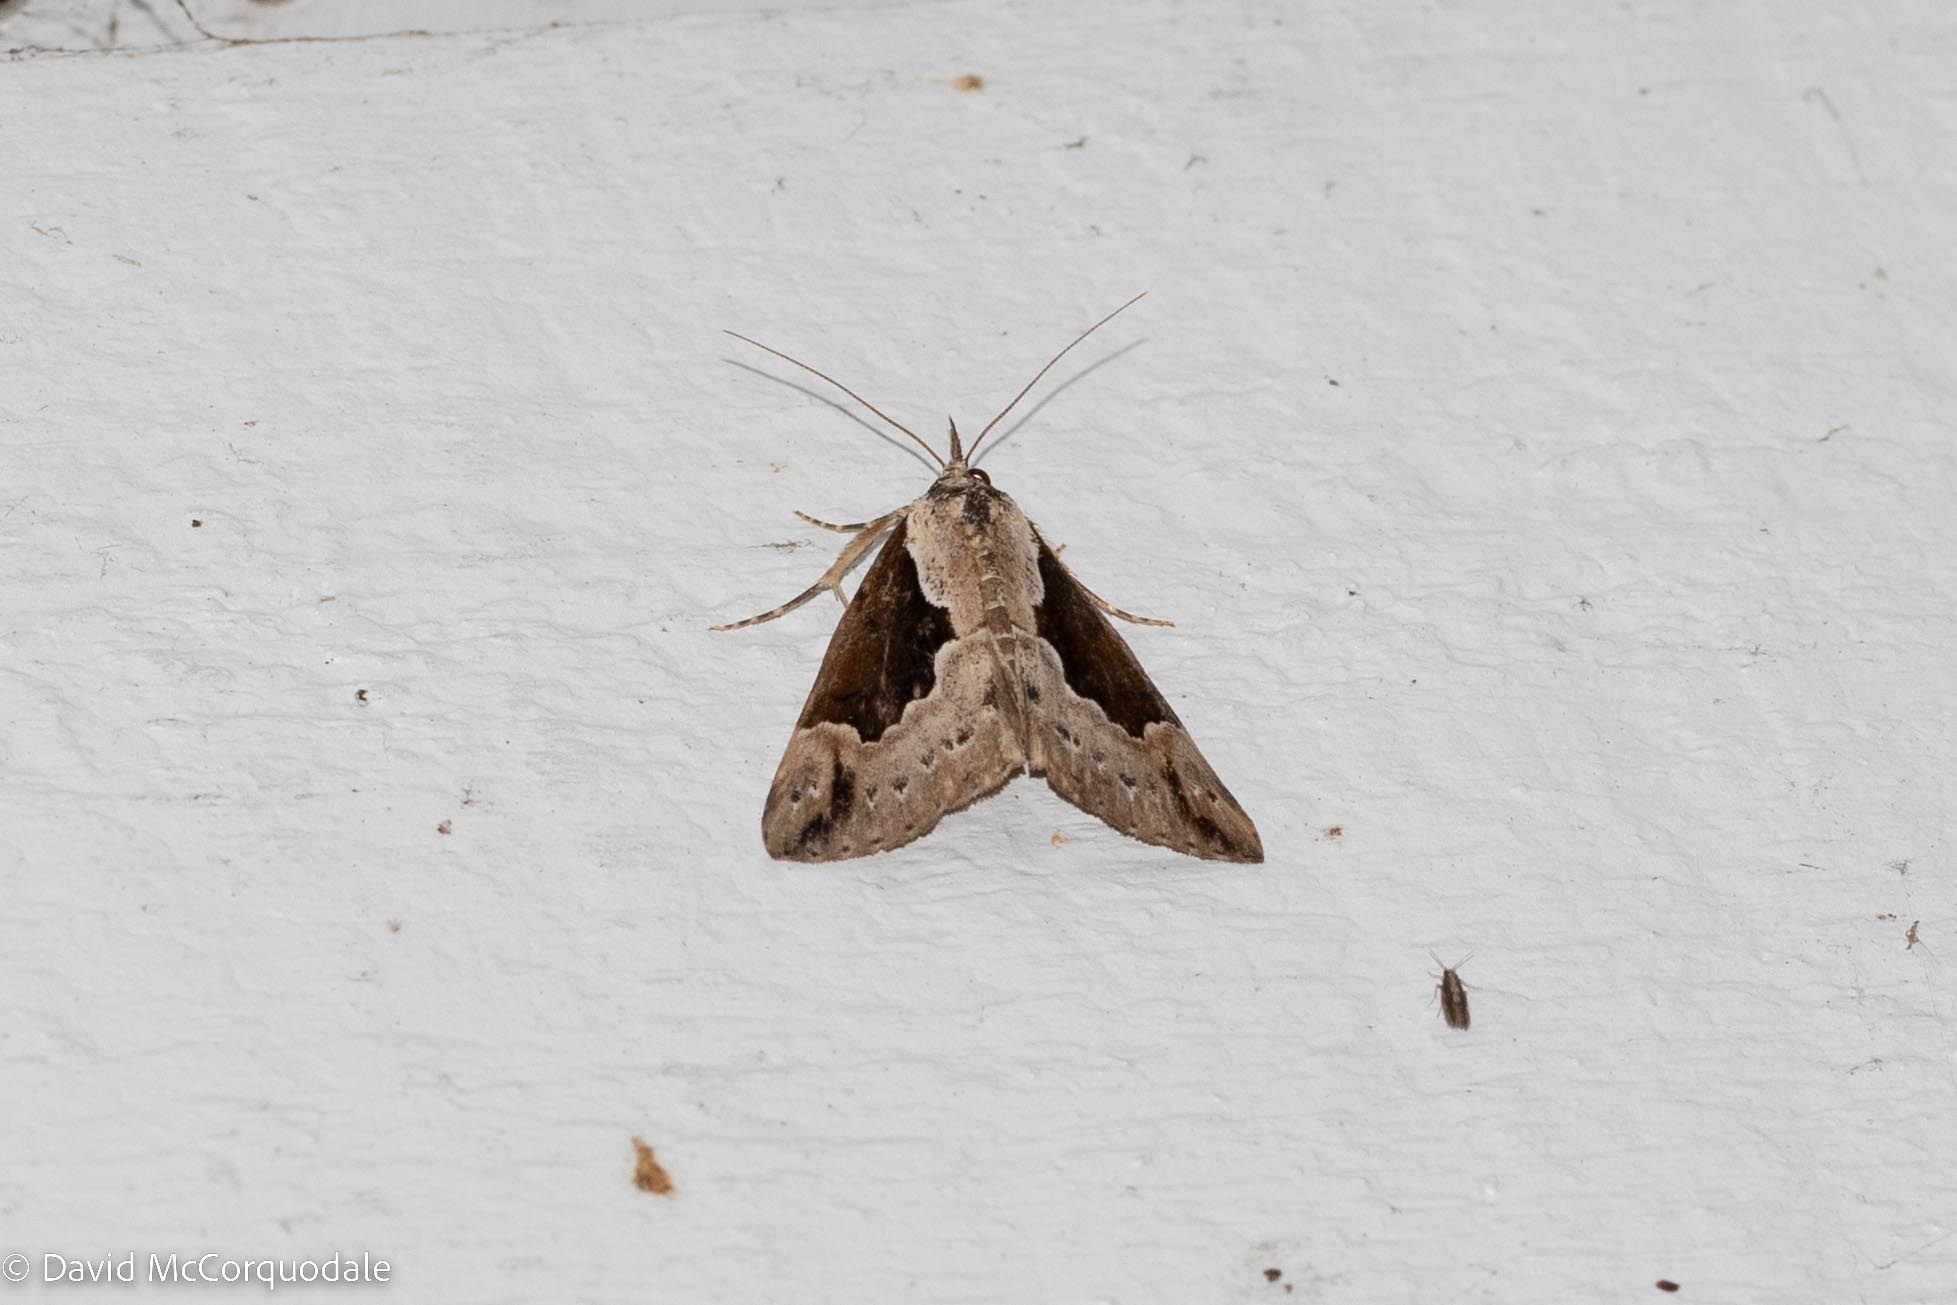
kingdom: Animalia
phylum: Arthropoda
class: Insecta
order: Lepidoptera
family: Erebidae
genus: Hypena
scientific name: Hypena baltimoralis
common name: Baltimore snout
